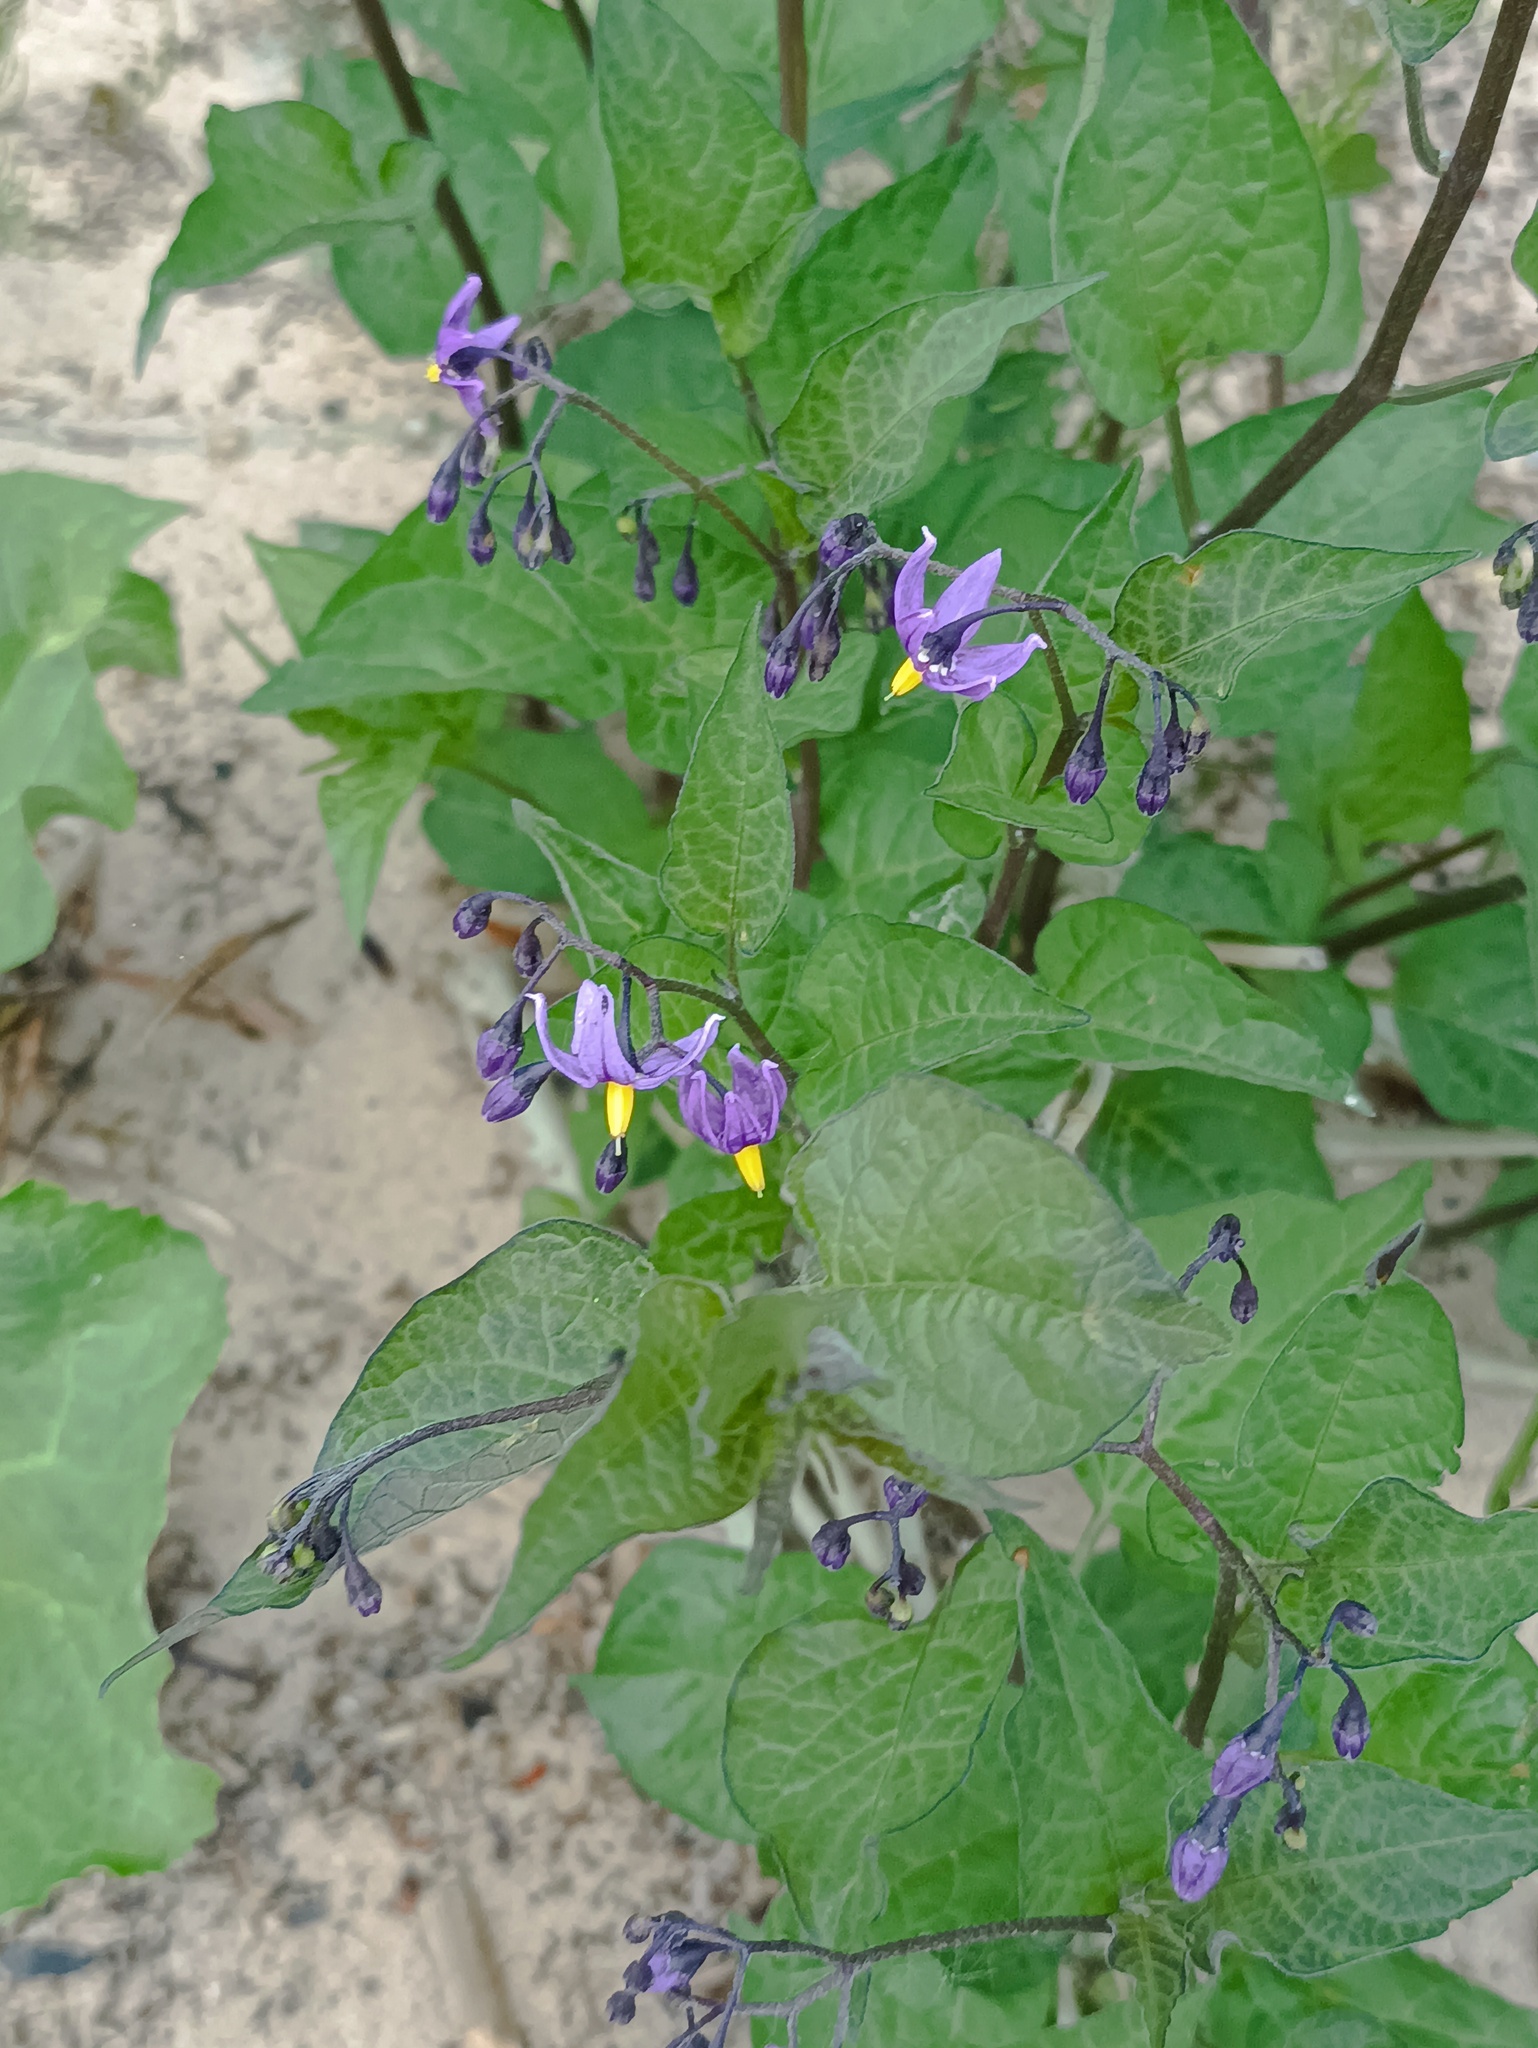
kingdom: Plantae
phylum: Tracheophyta
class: Magnoliopsida
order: Solanales
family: Solanaceae
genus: Solanum
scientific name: Solanum dulcamara
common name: Climbing nightshade
